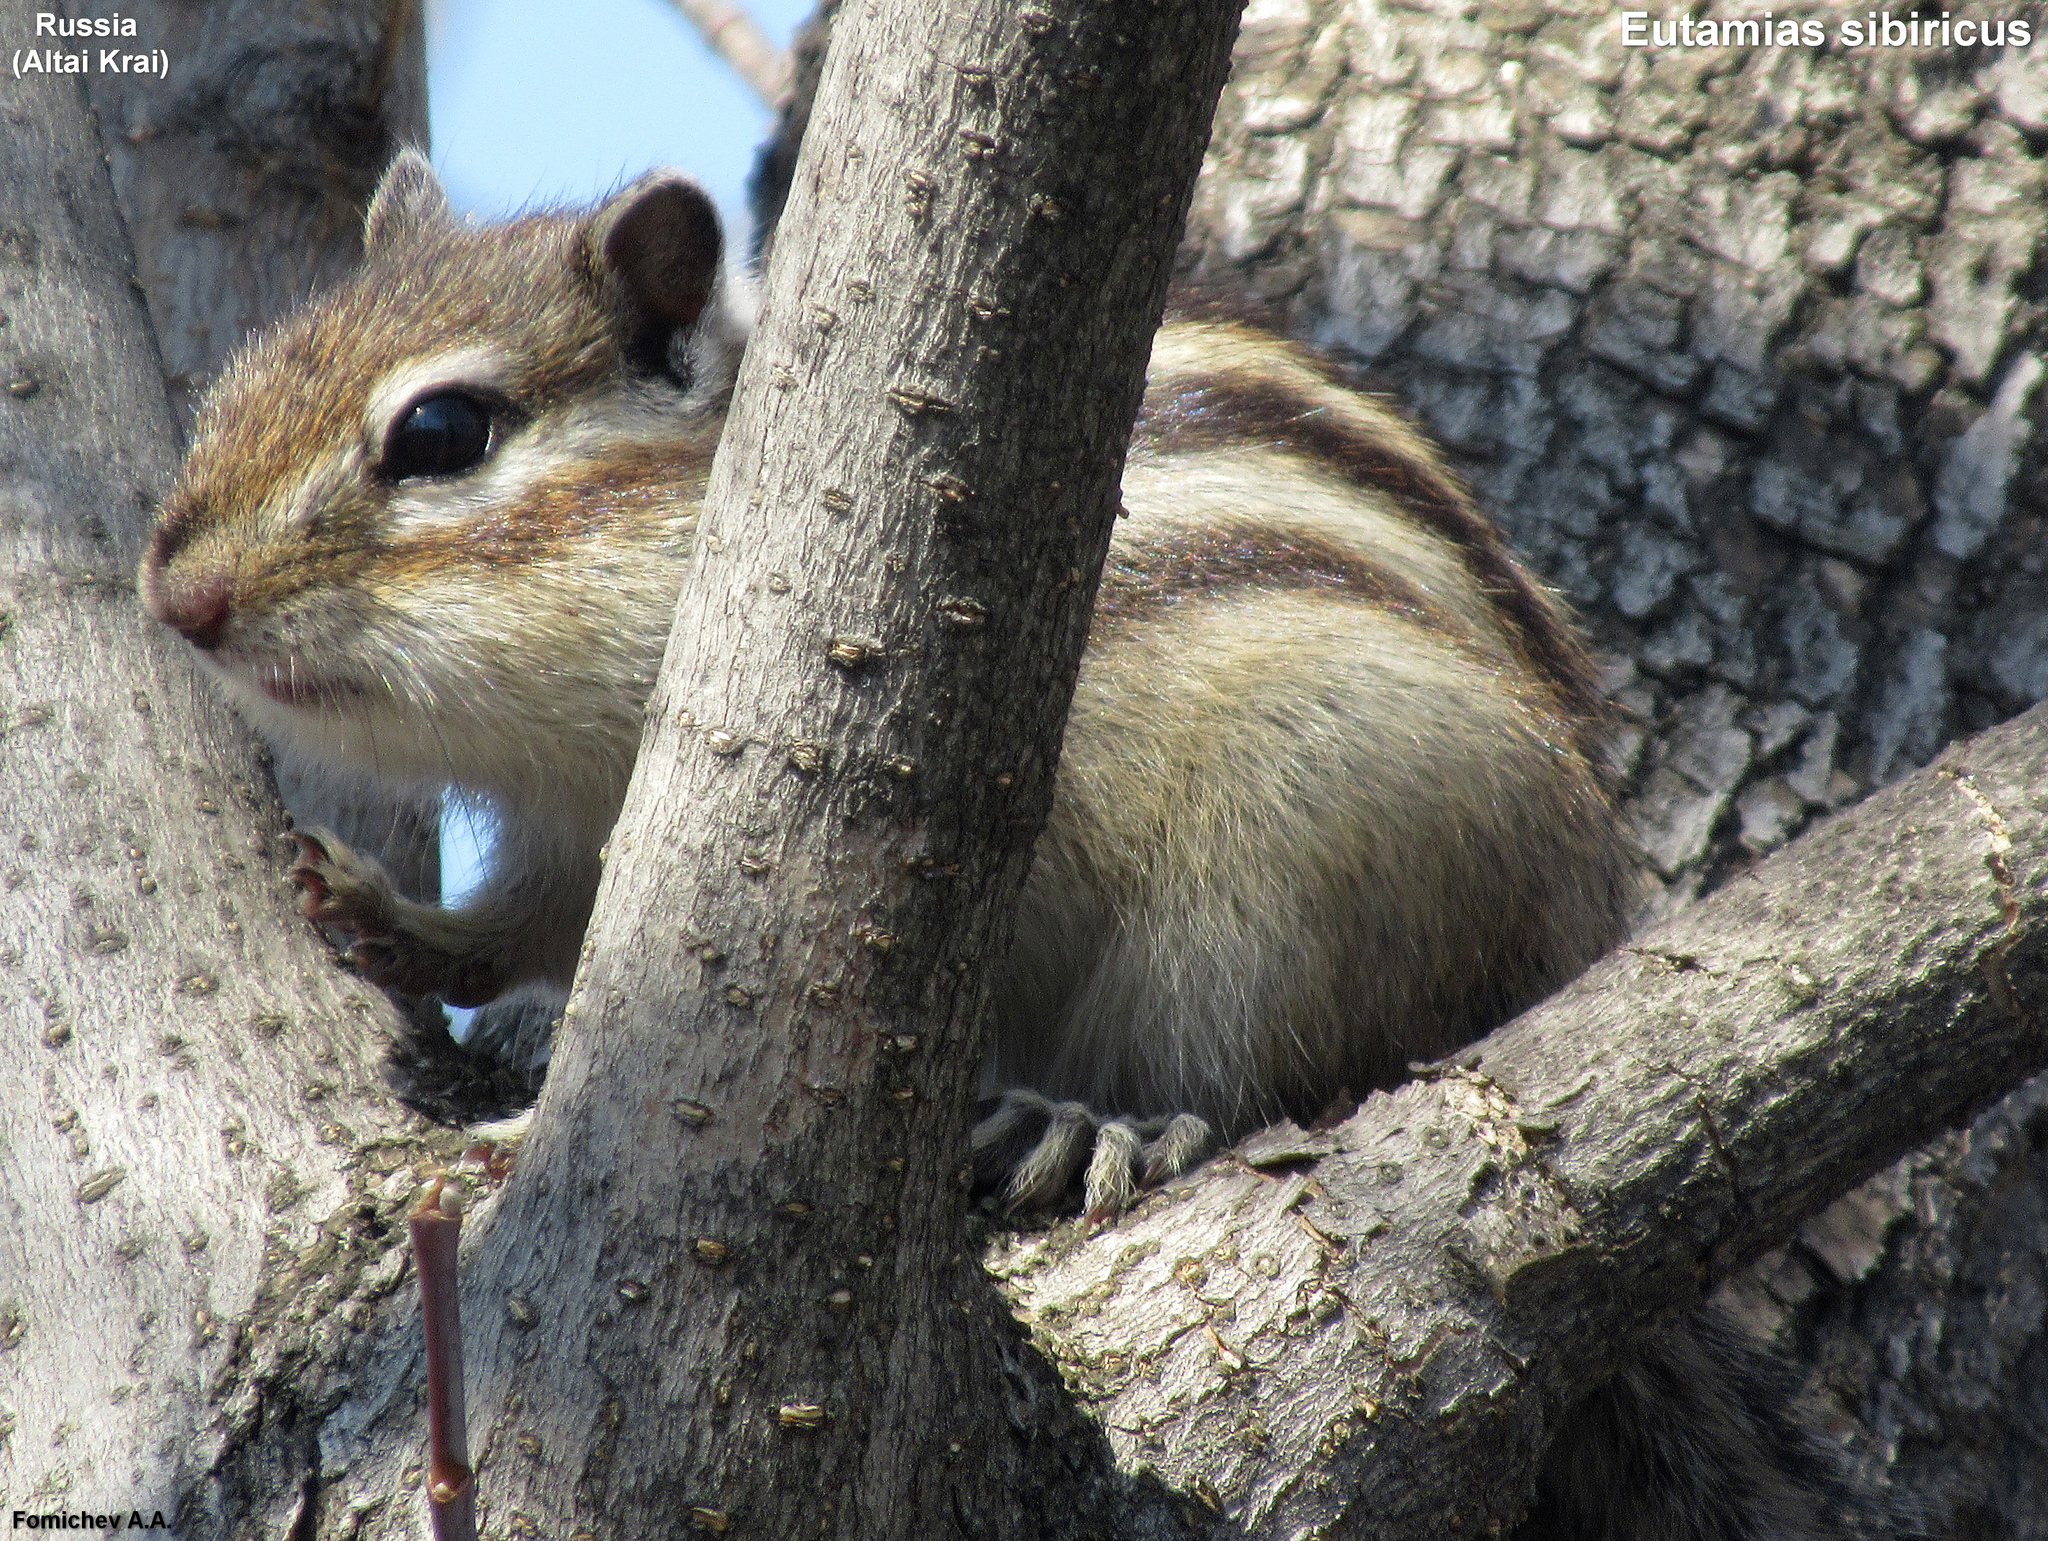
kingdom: Animalia
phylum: Chordata
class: Mammalia
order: Rodentia
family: Sciuridae
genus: Tamias
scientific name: Tamias sibiricus
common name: Siberian chipmunk
